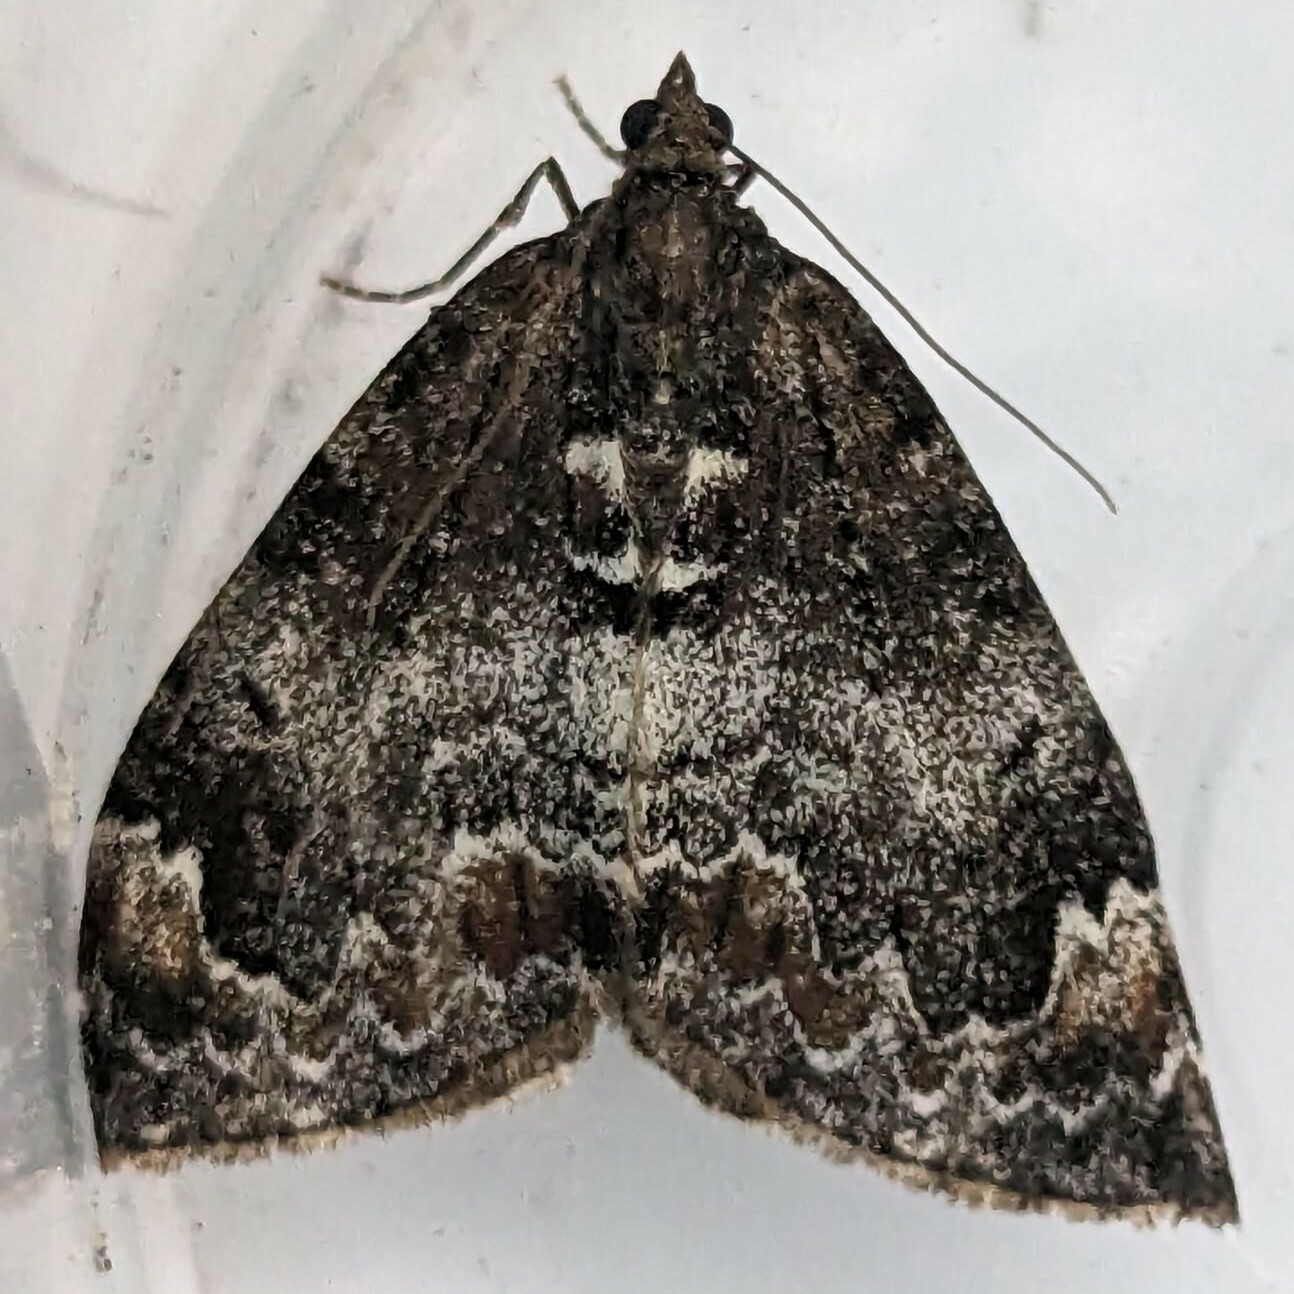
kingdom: Animalia
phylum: Arthropoda
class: Insecta
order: Lepidoptera
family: Geometridae
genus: Dysstroma
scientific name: Dysstroma truncata
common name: Common marbled carpet
